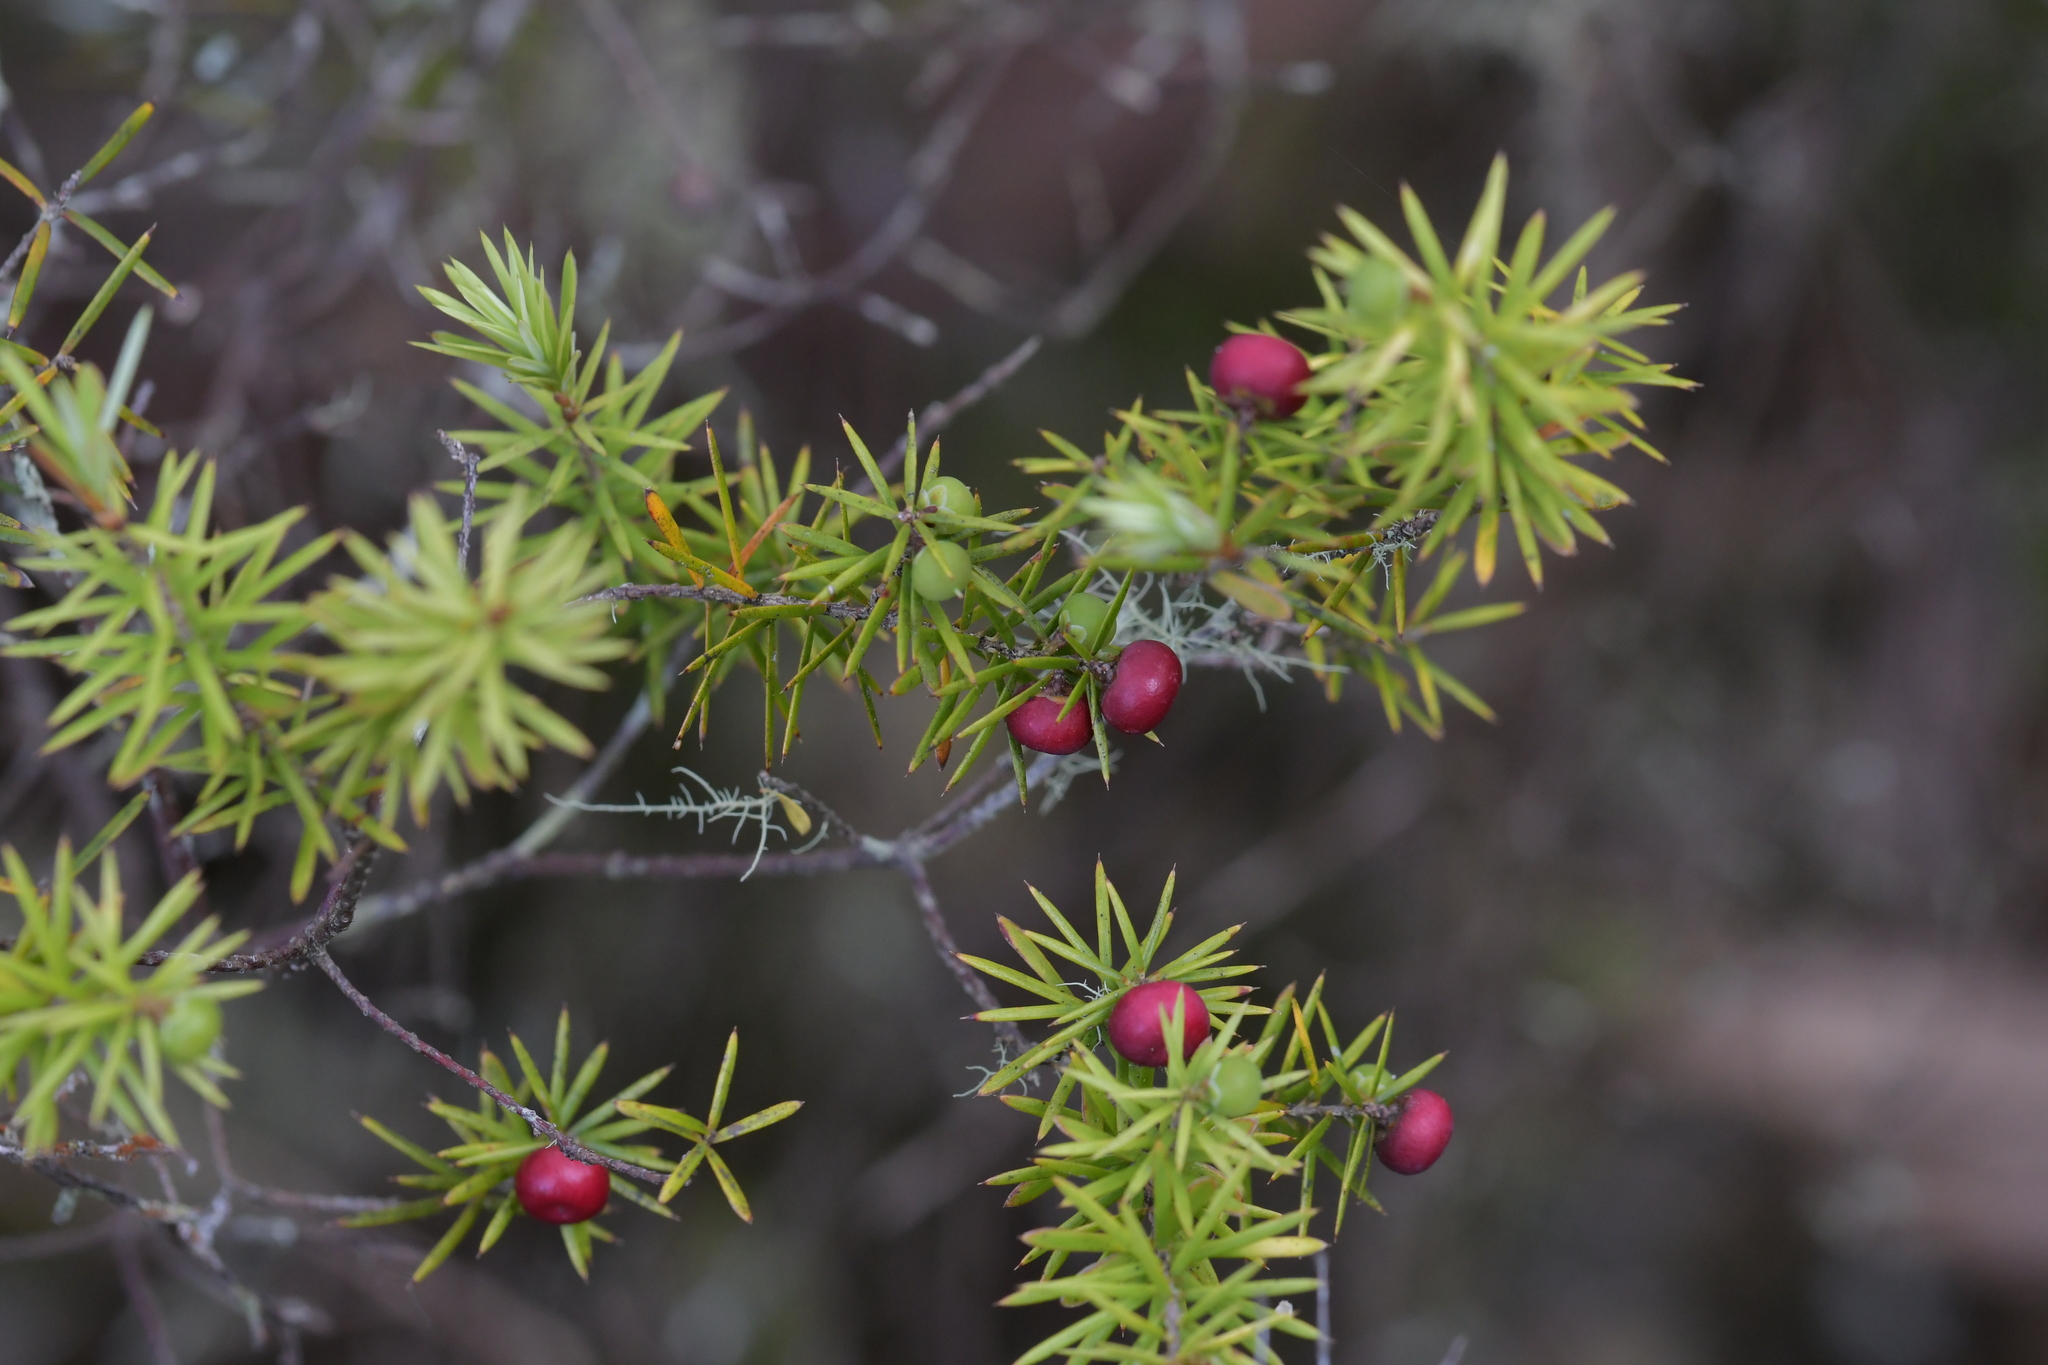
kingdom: Plantae
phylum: Tracheophyta
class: Magnoliopsida
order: Ericales
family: Ericaceae
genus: Leptecophylla
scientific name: Leptecophylla juniperina
